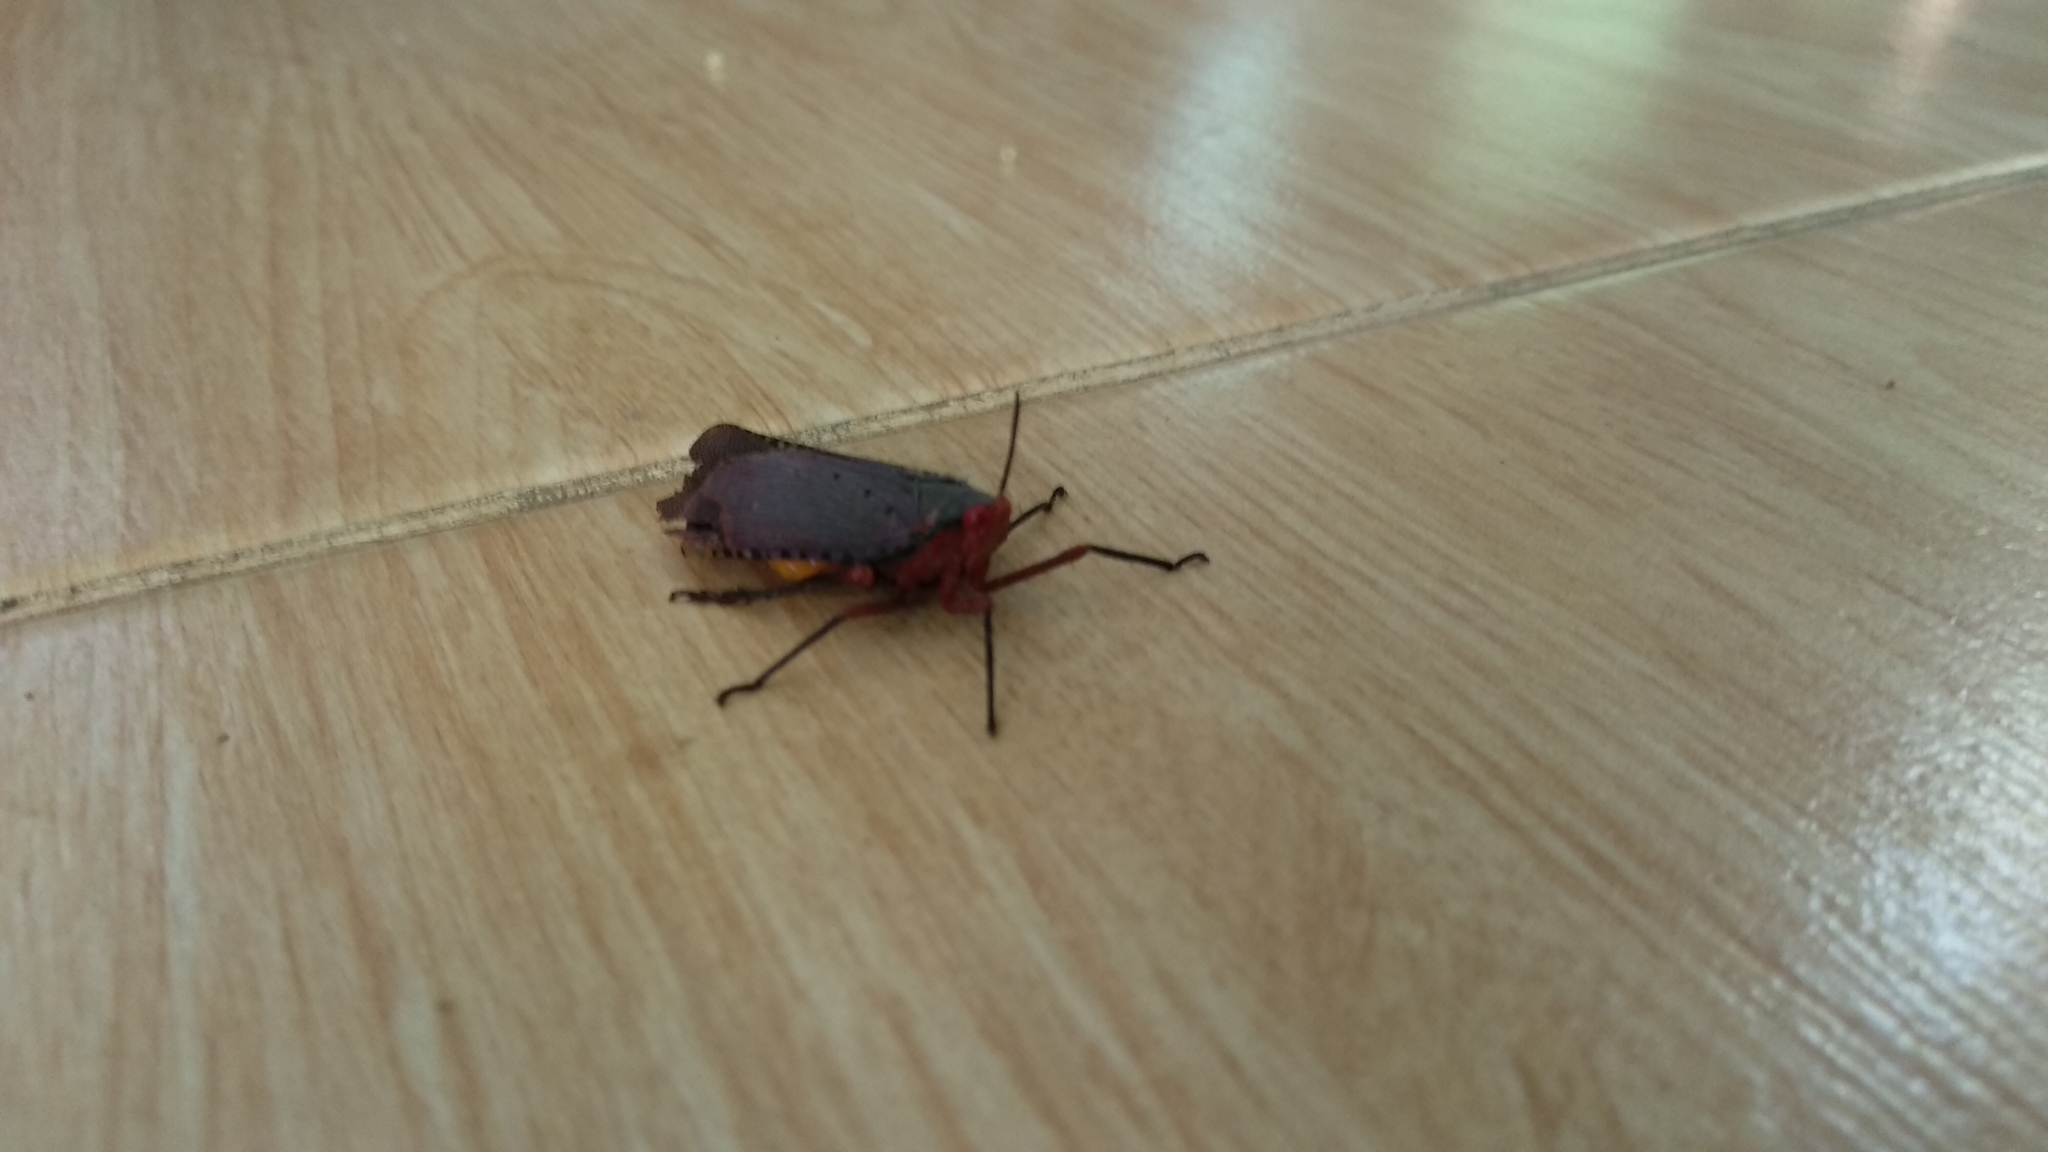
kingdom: Animalia
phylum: Arthropoda
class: Insecta
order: Hemiptera
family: Fulgoridae
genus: Kalidasa
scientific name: Kalidasa nigromaculata
